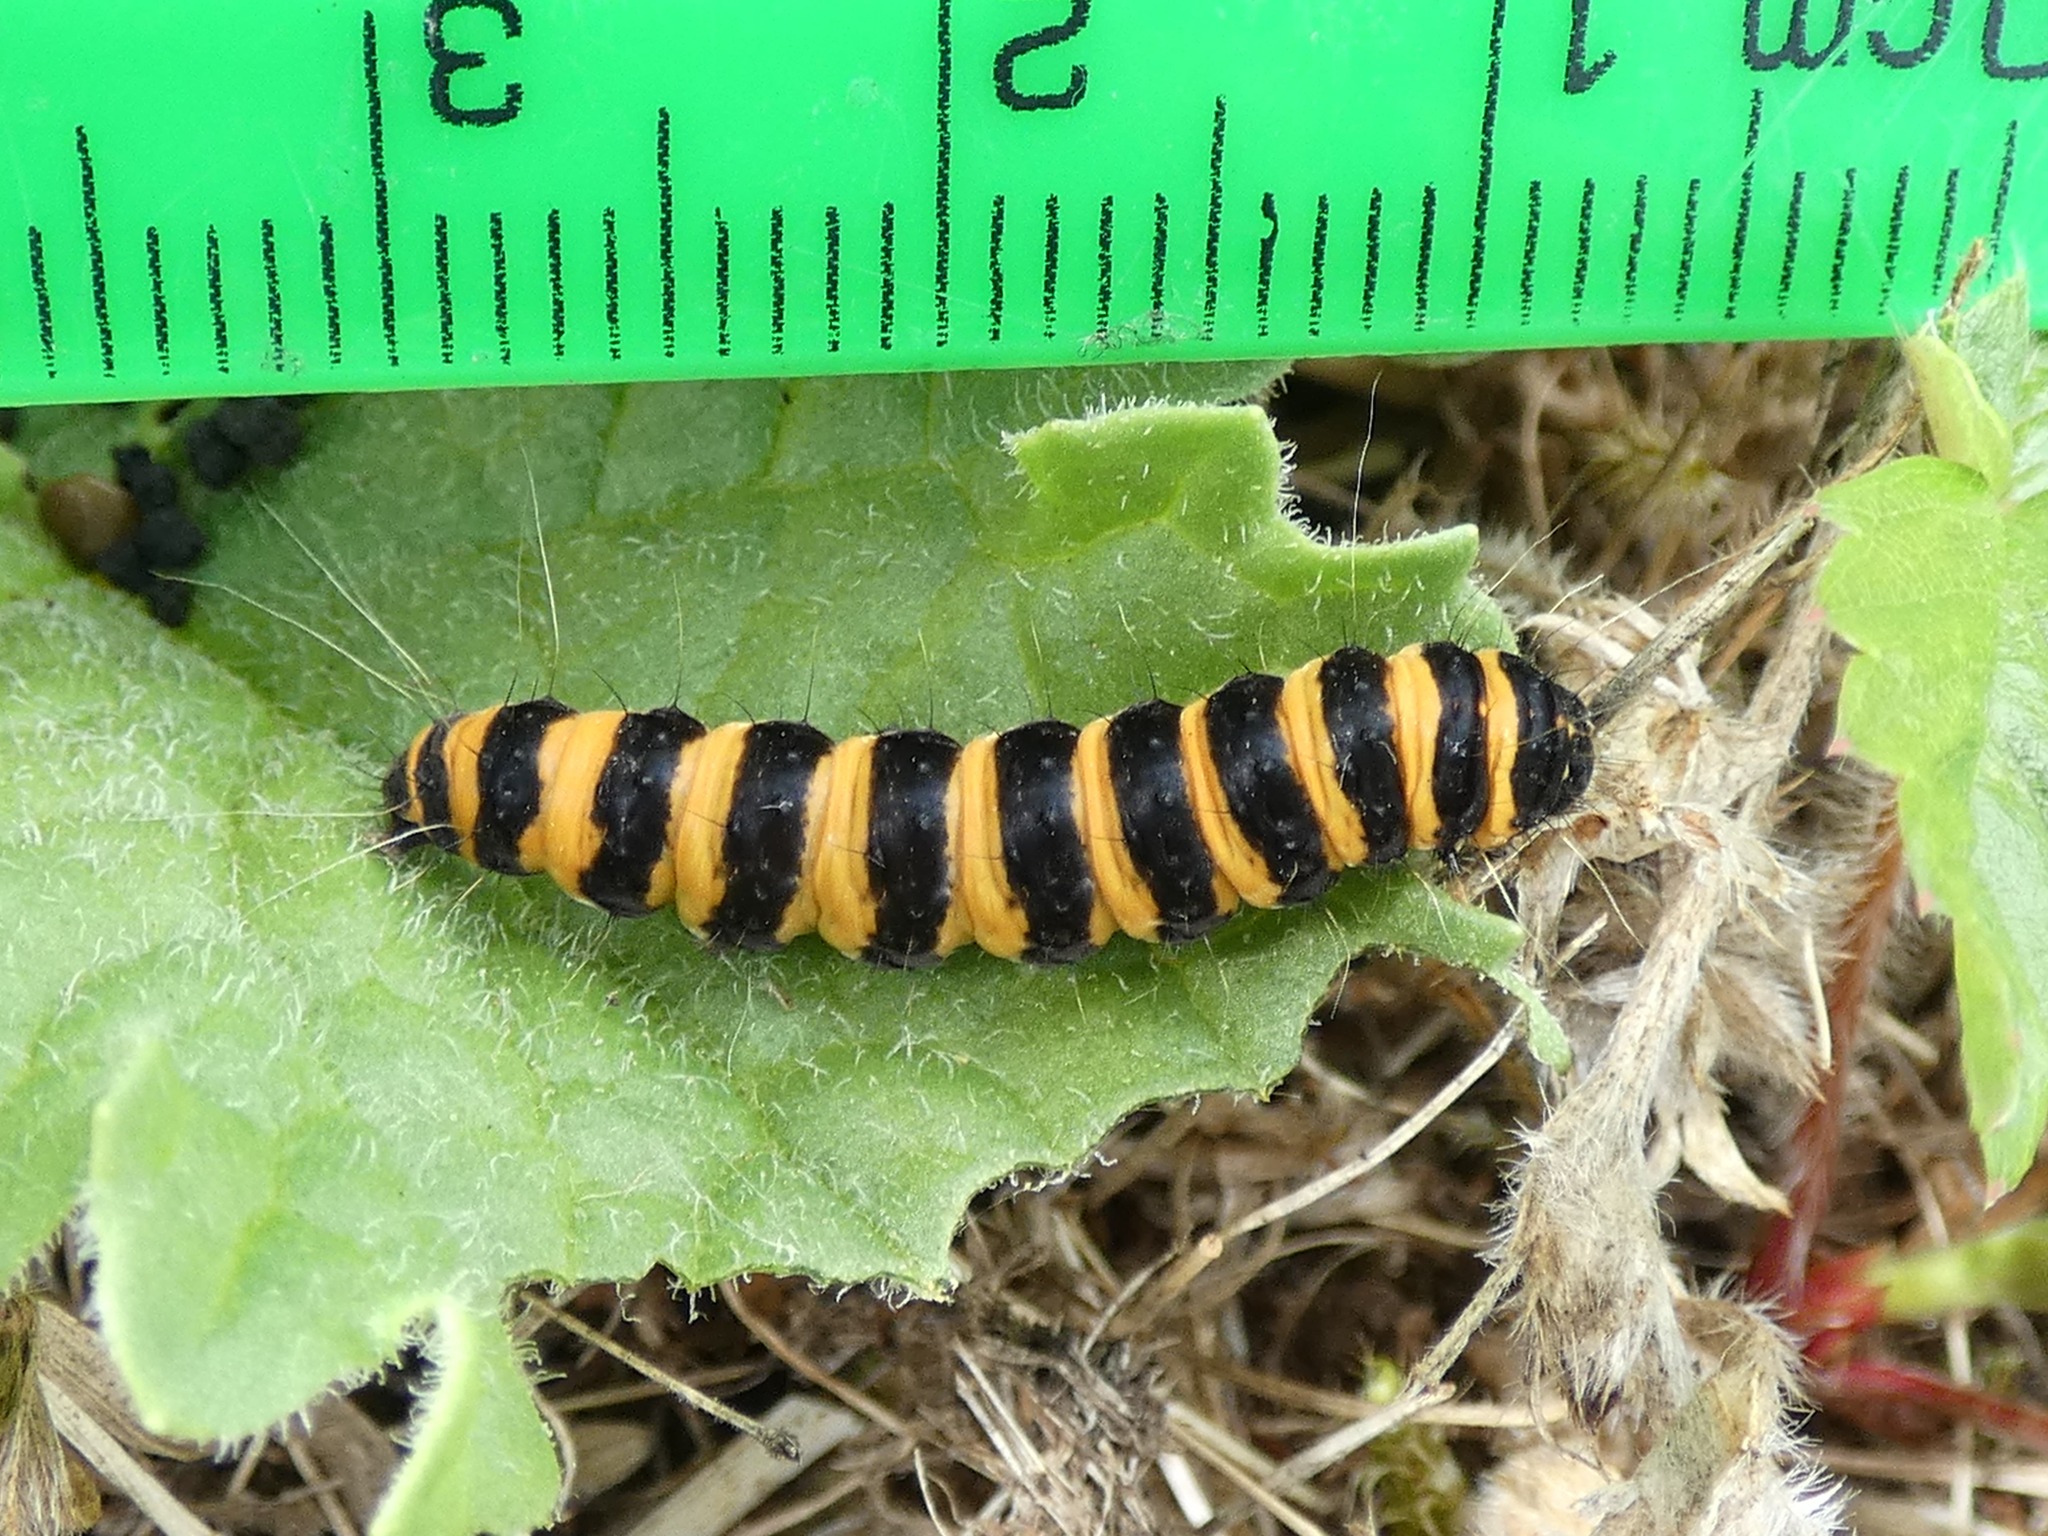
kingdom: Animalia
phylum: Arthropoda
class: Insecta
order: Lepidoptera
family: Erebidae
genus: Tyria
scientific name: Tyria jacobaeae
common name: Cinnabar
